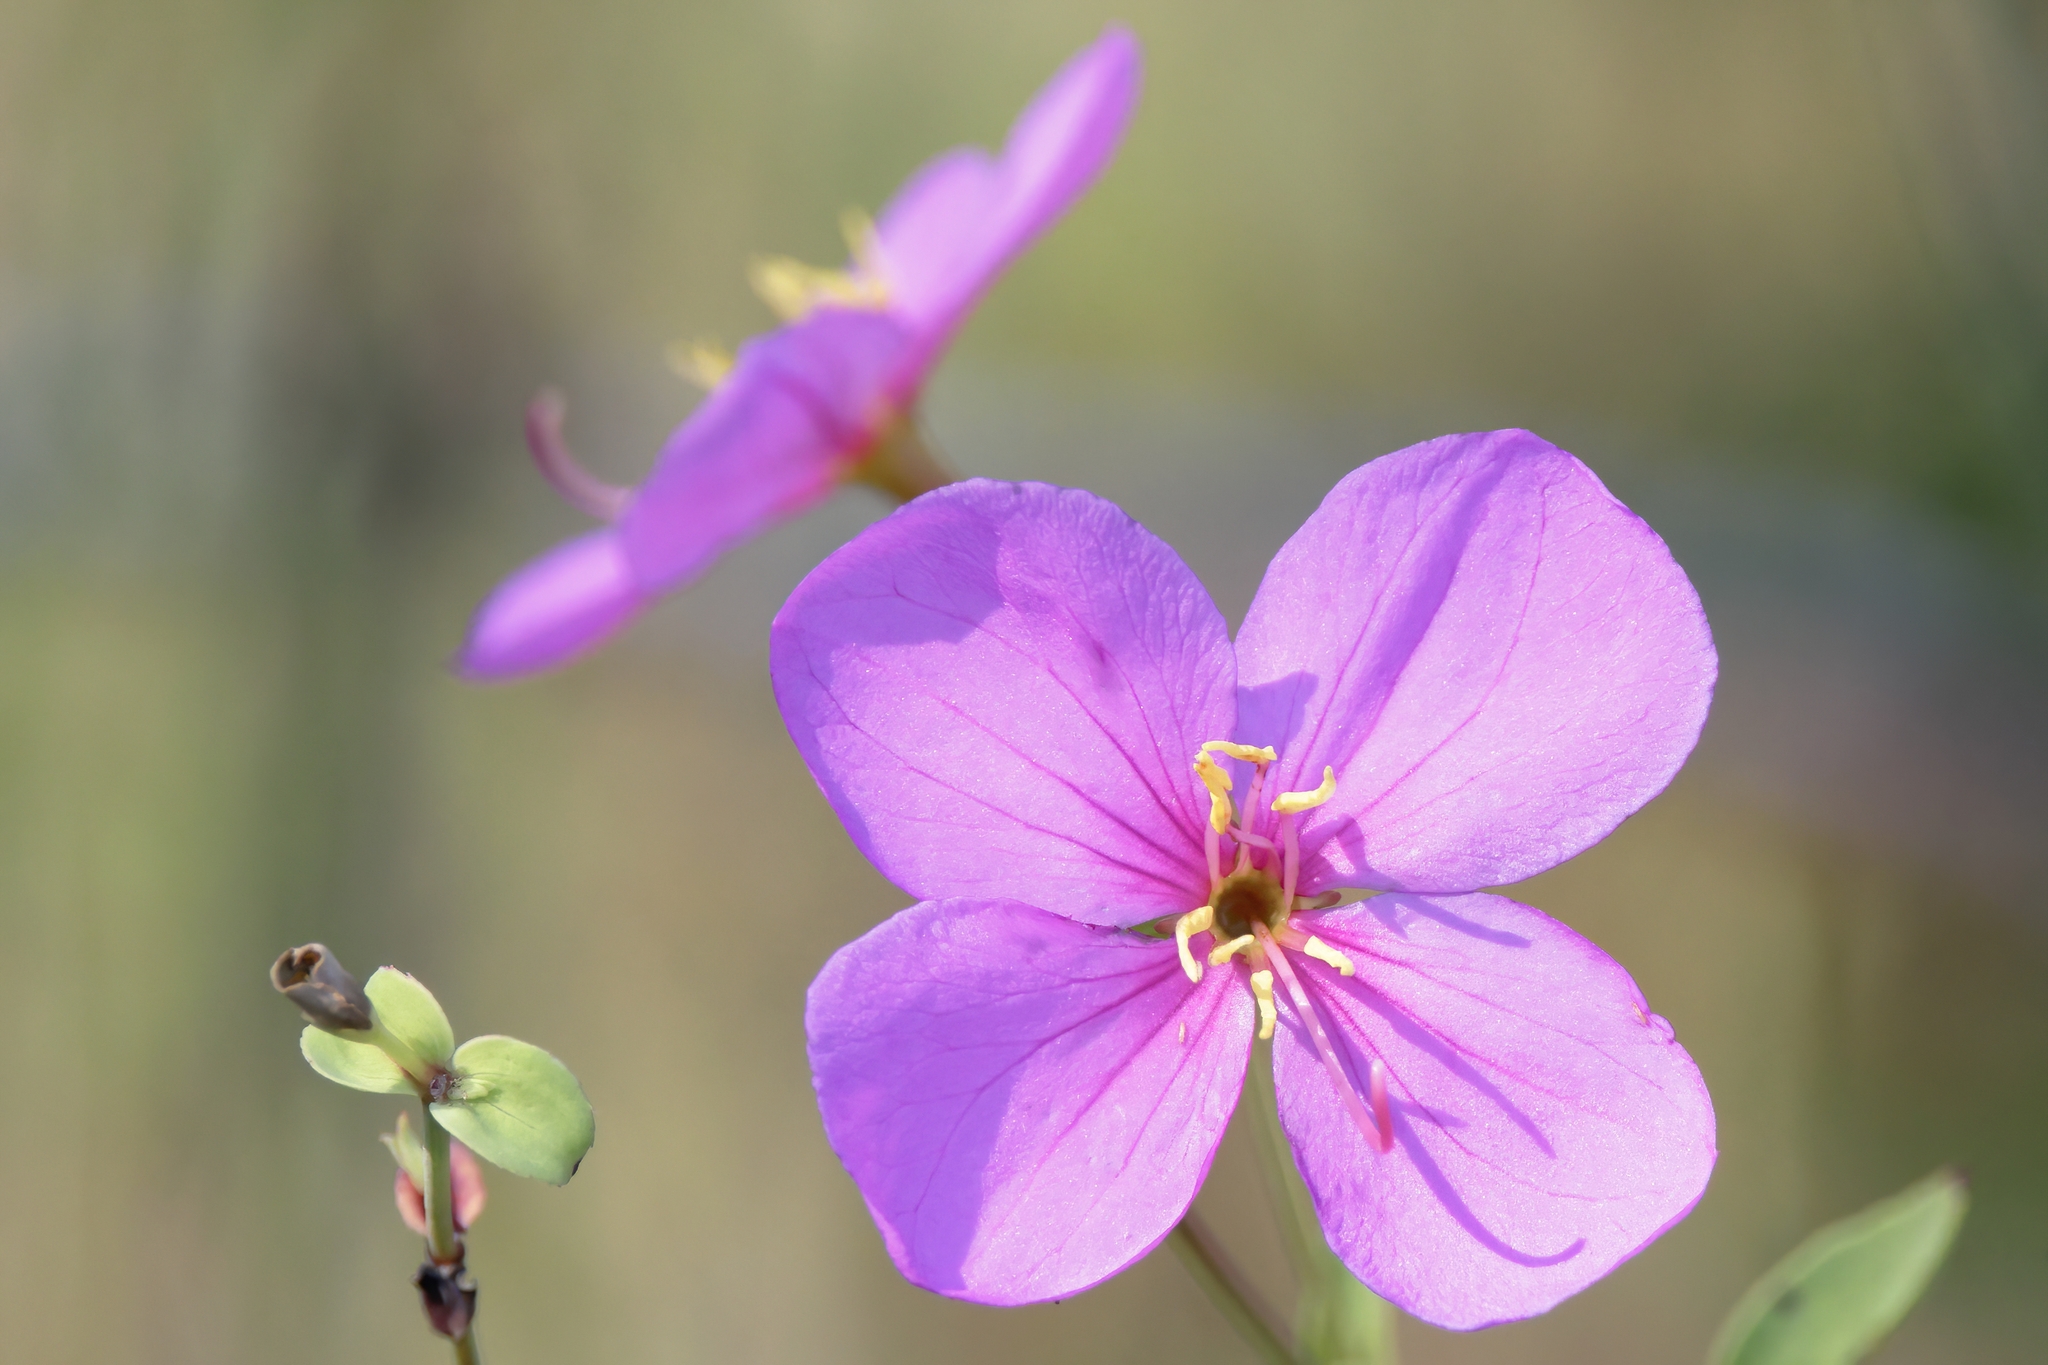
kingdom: Plantae
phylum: Tracheophyta
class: Magnoliopsida
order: Myrtales
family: Melastomataceae
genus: Rhexia
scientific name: Rhexia alifanus
